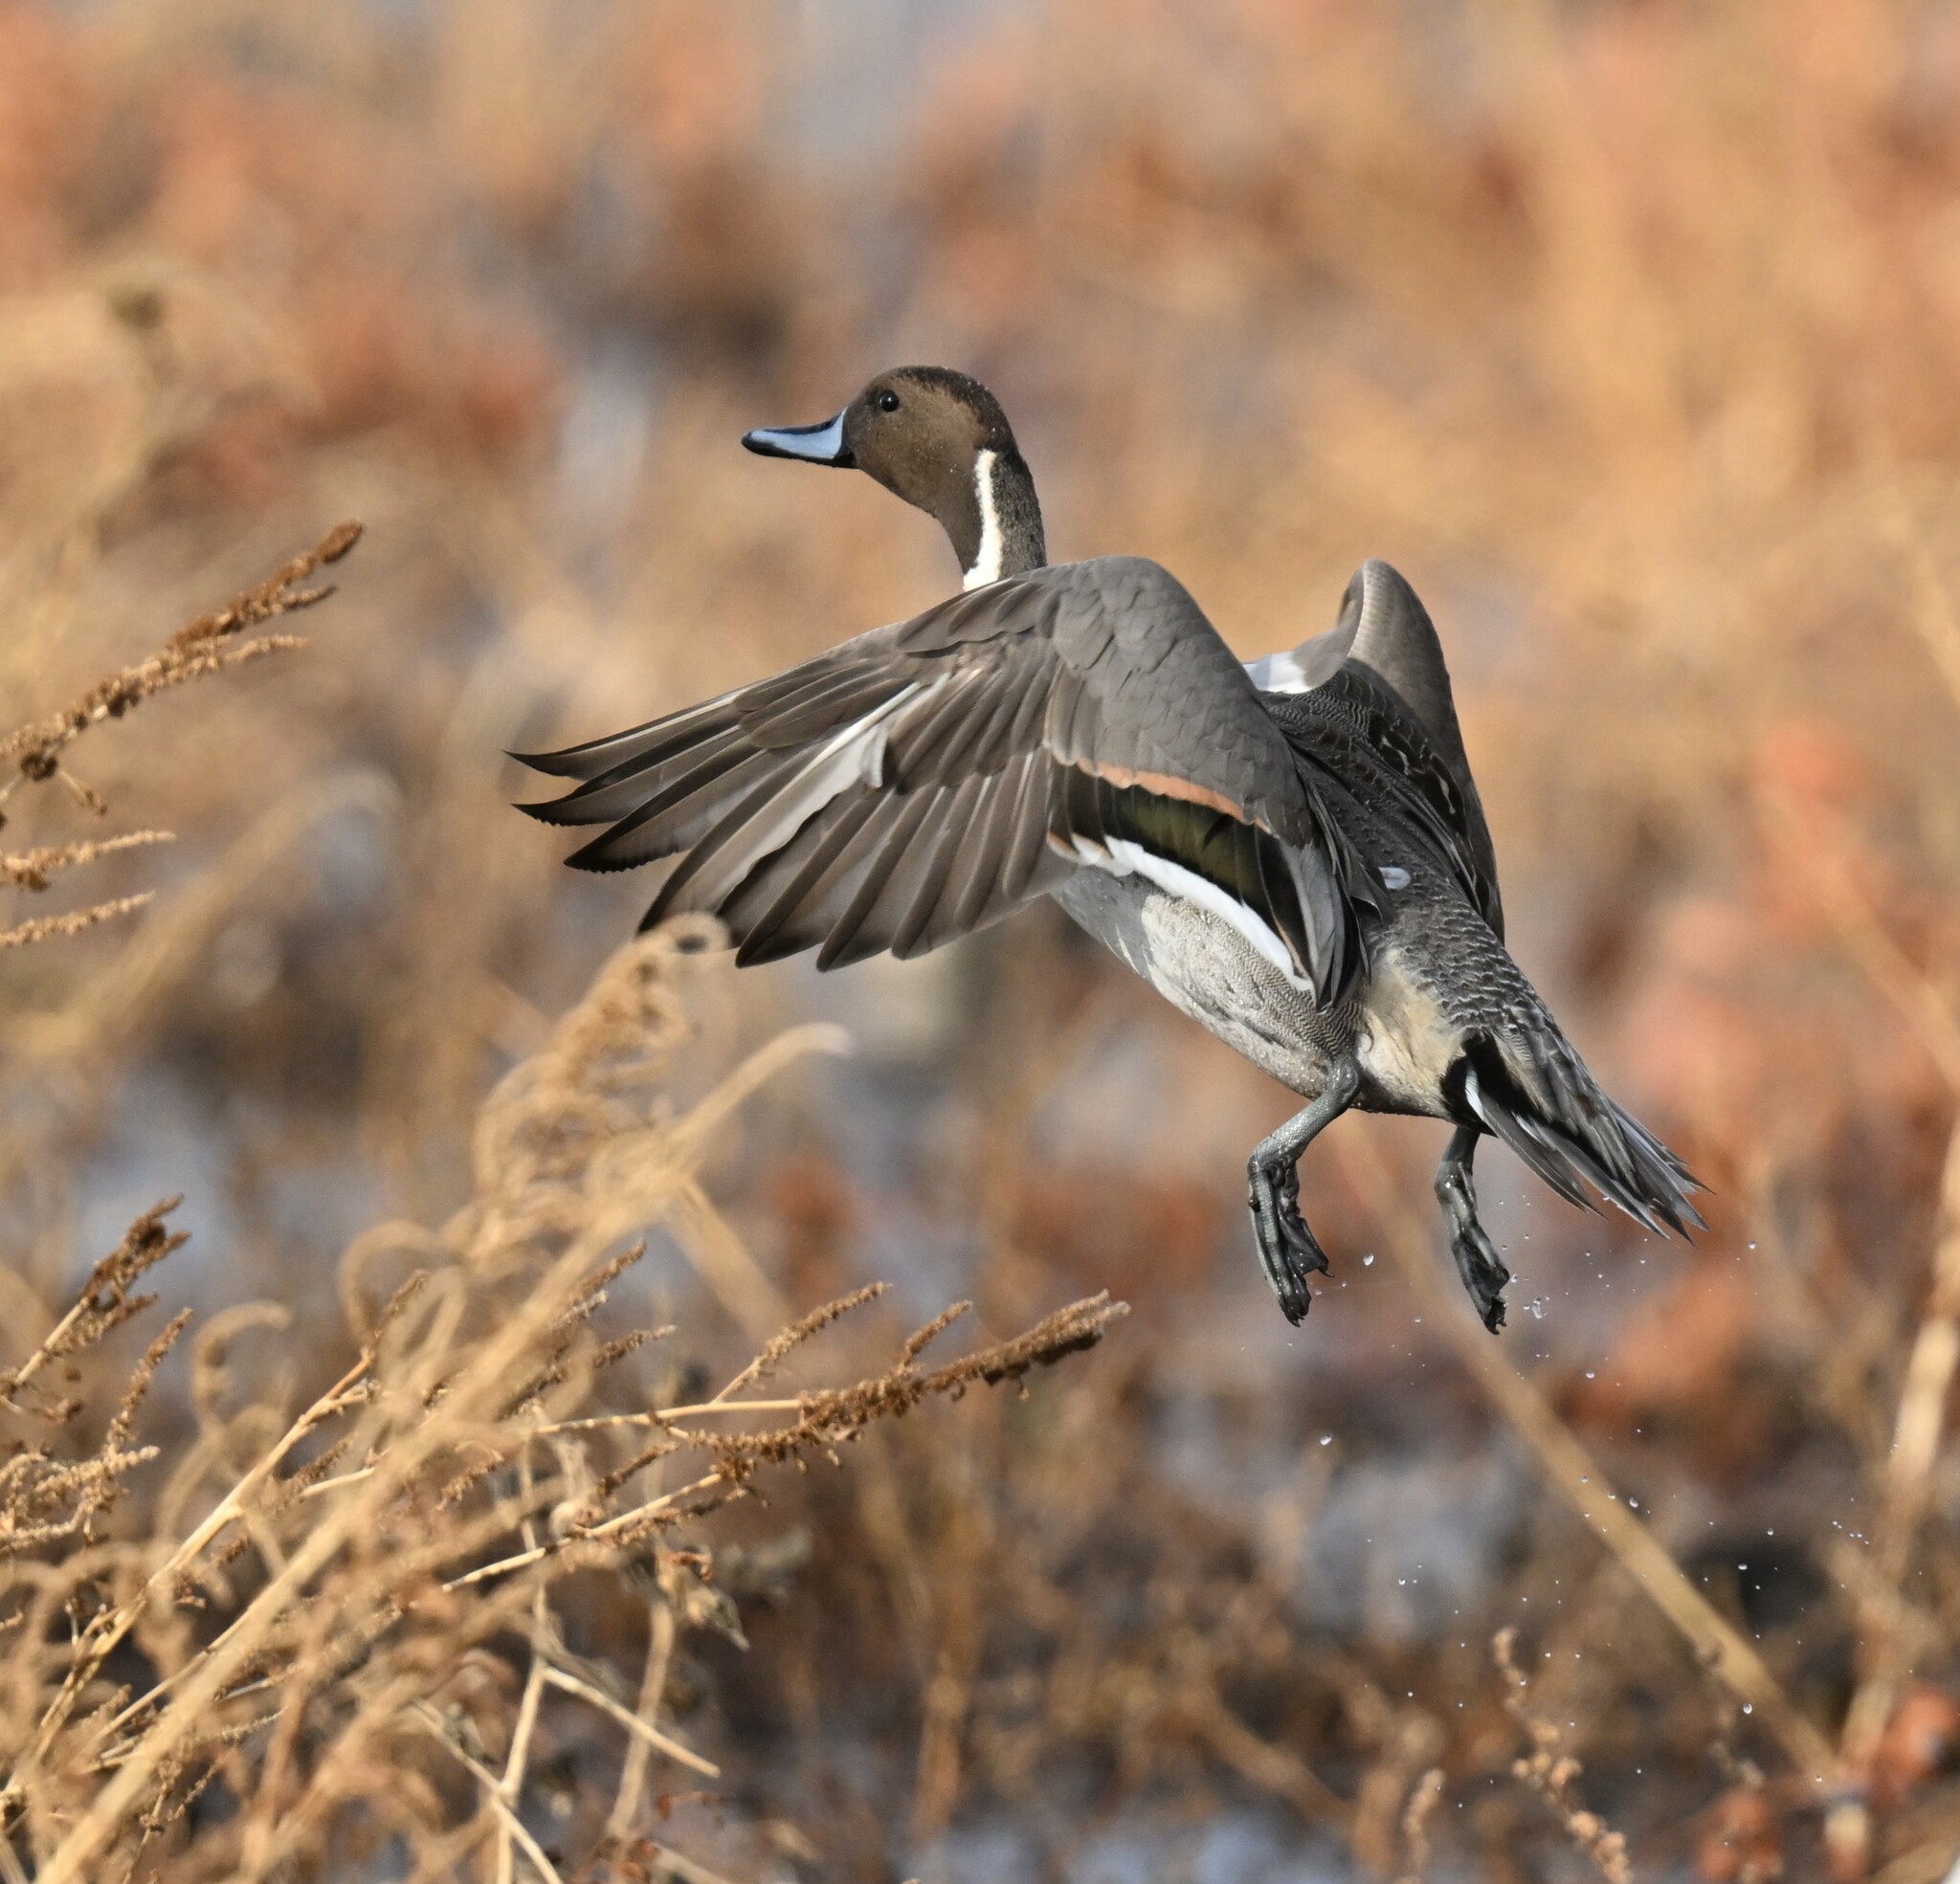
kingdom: Animalia
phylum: Chordata
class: Aves
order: Anseriformes
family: Anatidae
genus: Anas
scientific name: Anas acuta
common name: Northern pintail
